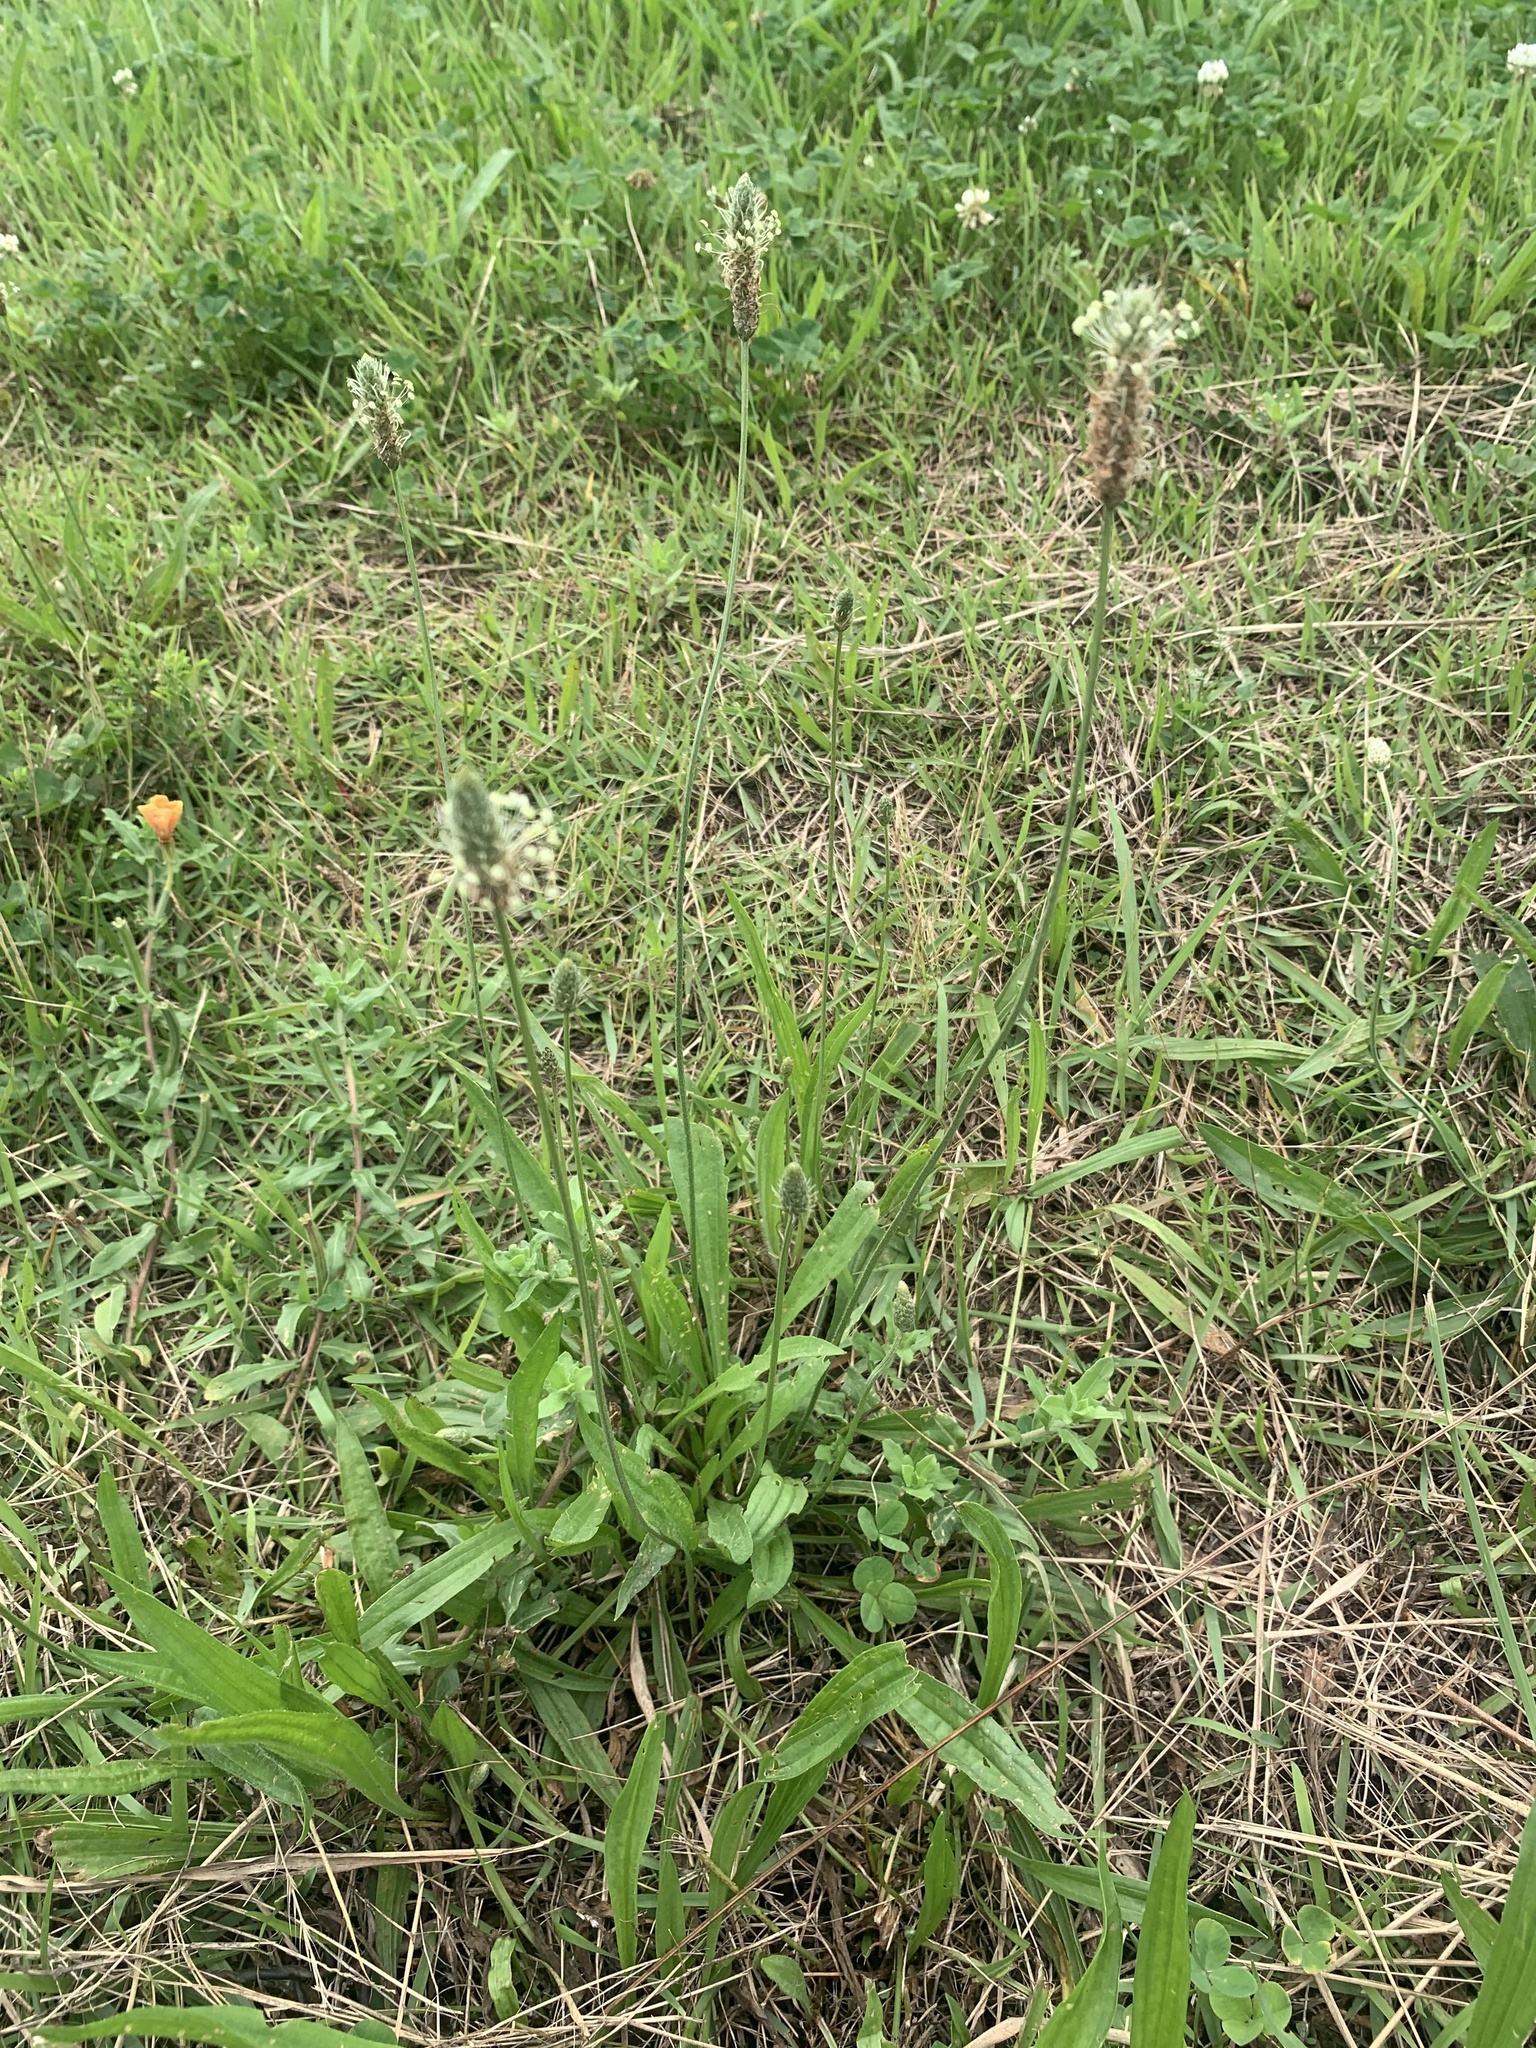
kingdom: Plantae
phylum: Tracheophyta
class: Magnoliopsida
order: Lamiales
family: Plantaginaceae
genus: Plantago
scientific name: Plantago lanceolata
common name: Ribwort plantain
